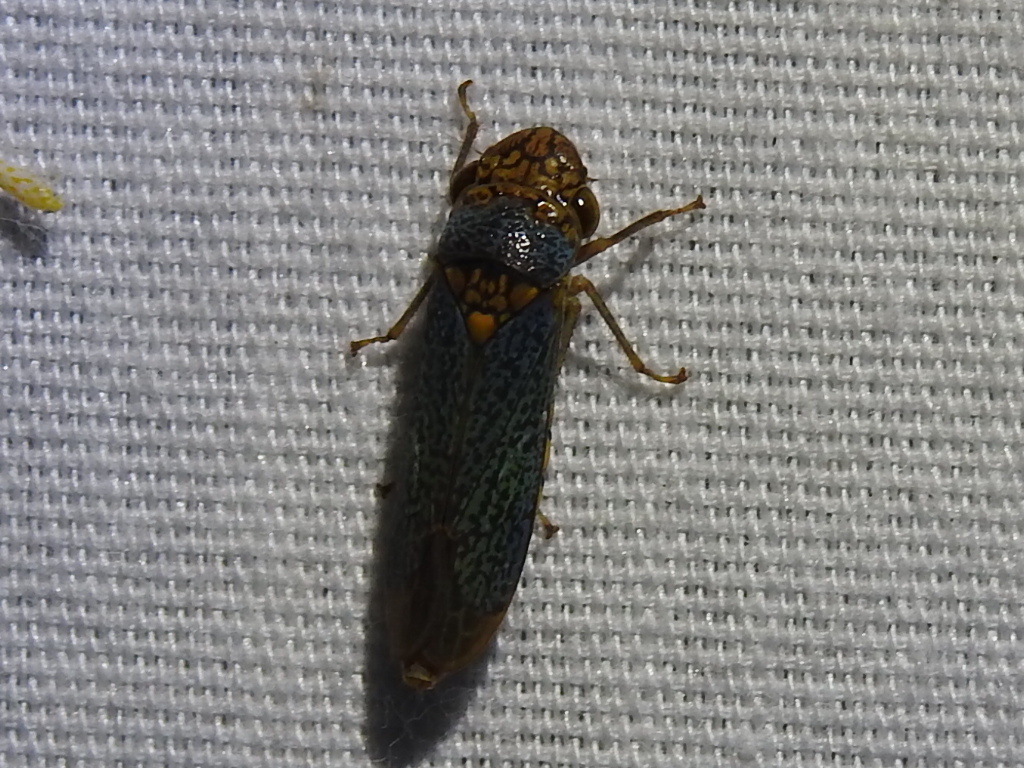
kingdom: Animalia
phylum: Arthropoda
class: Insecta
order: Hemiptera
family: Cicadellidae
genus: Oncometopia
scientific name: Oncometopia orbona
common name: Broad-headed sharpshooter
